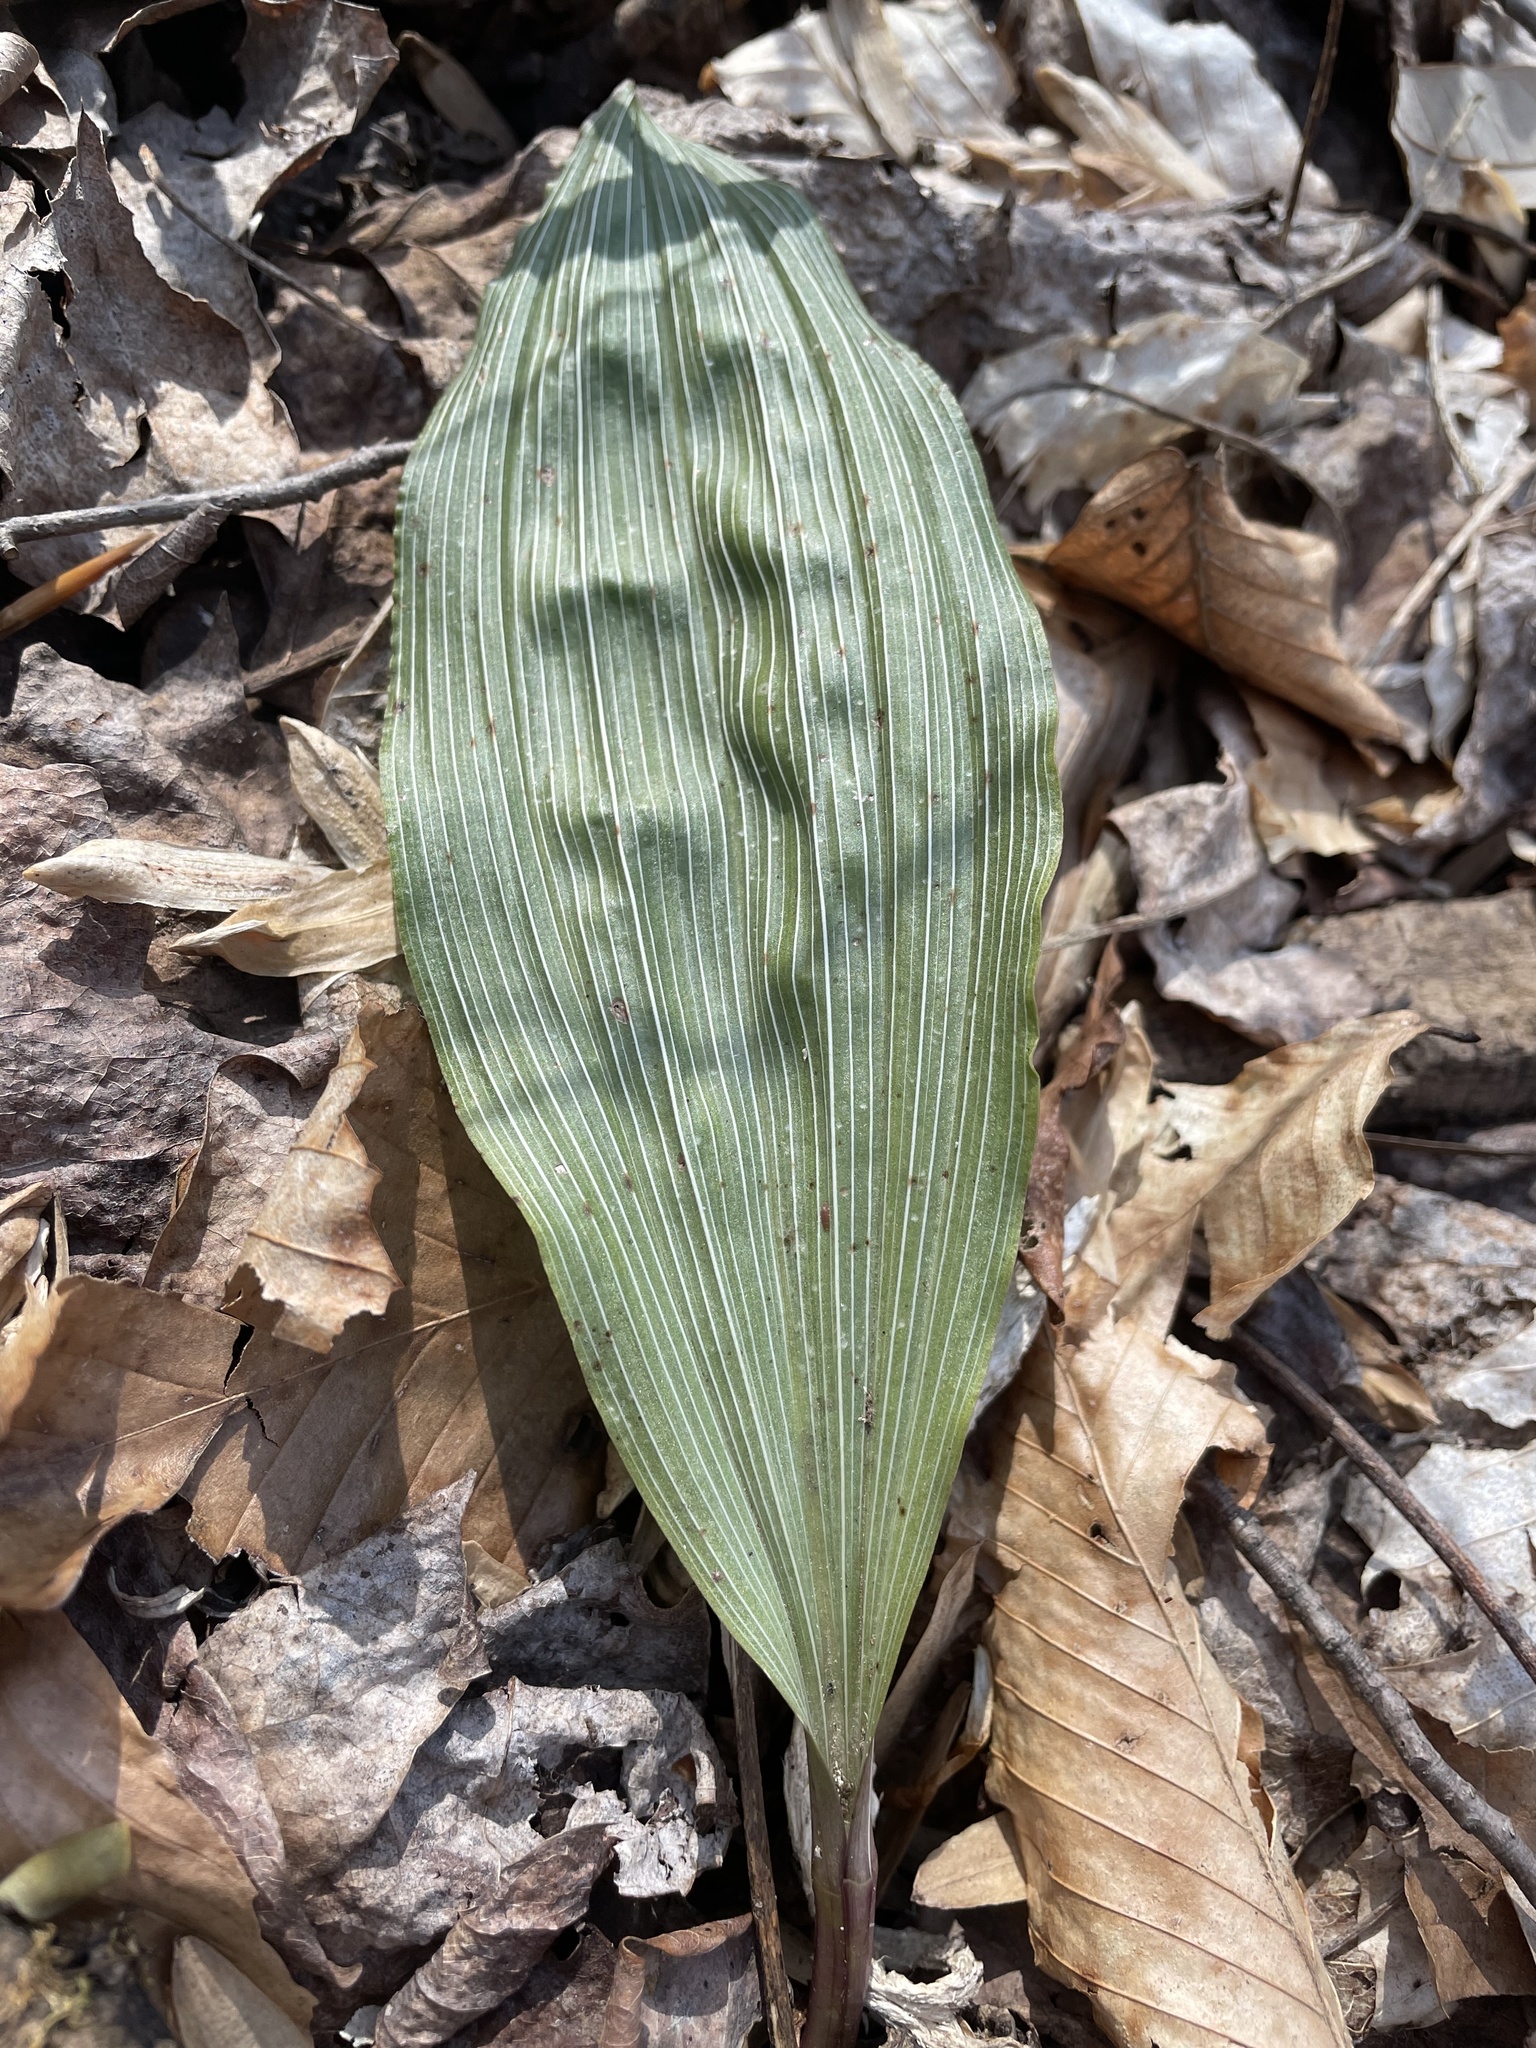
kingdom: Plantae
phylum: Tracheophyta
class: Liliopsida
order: Asparagales
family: Orchidaceae
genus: Aplectrum
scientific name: Aplectrum hyemale
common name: Adam-and-eve
